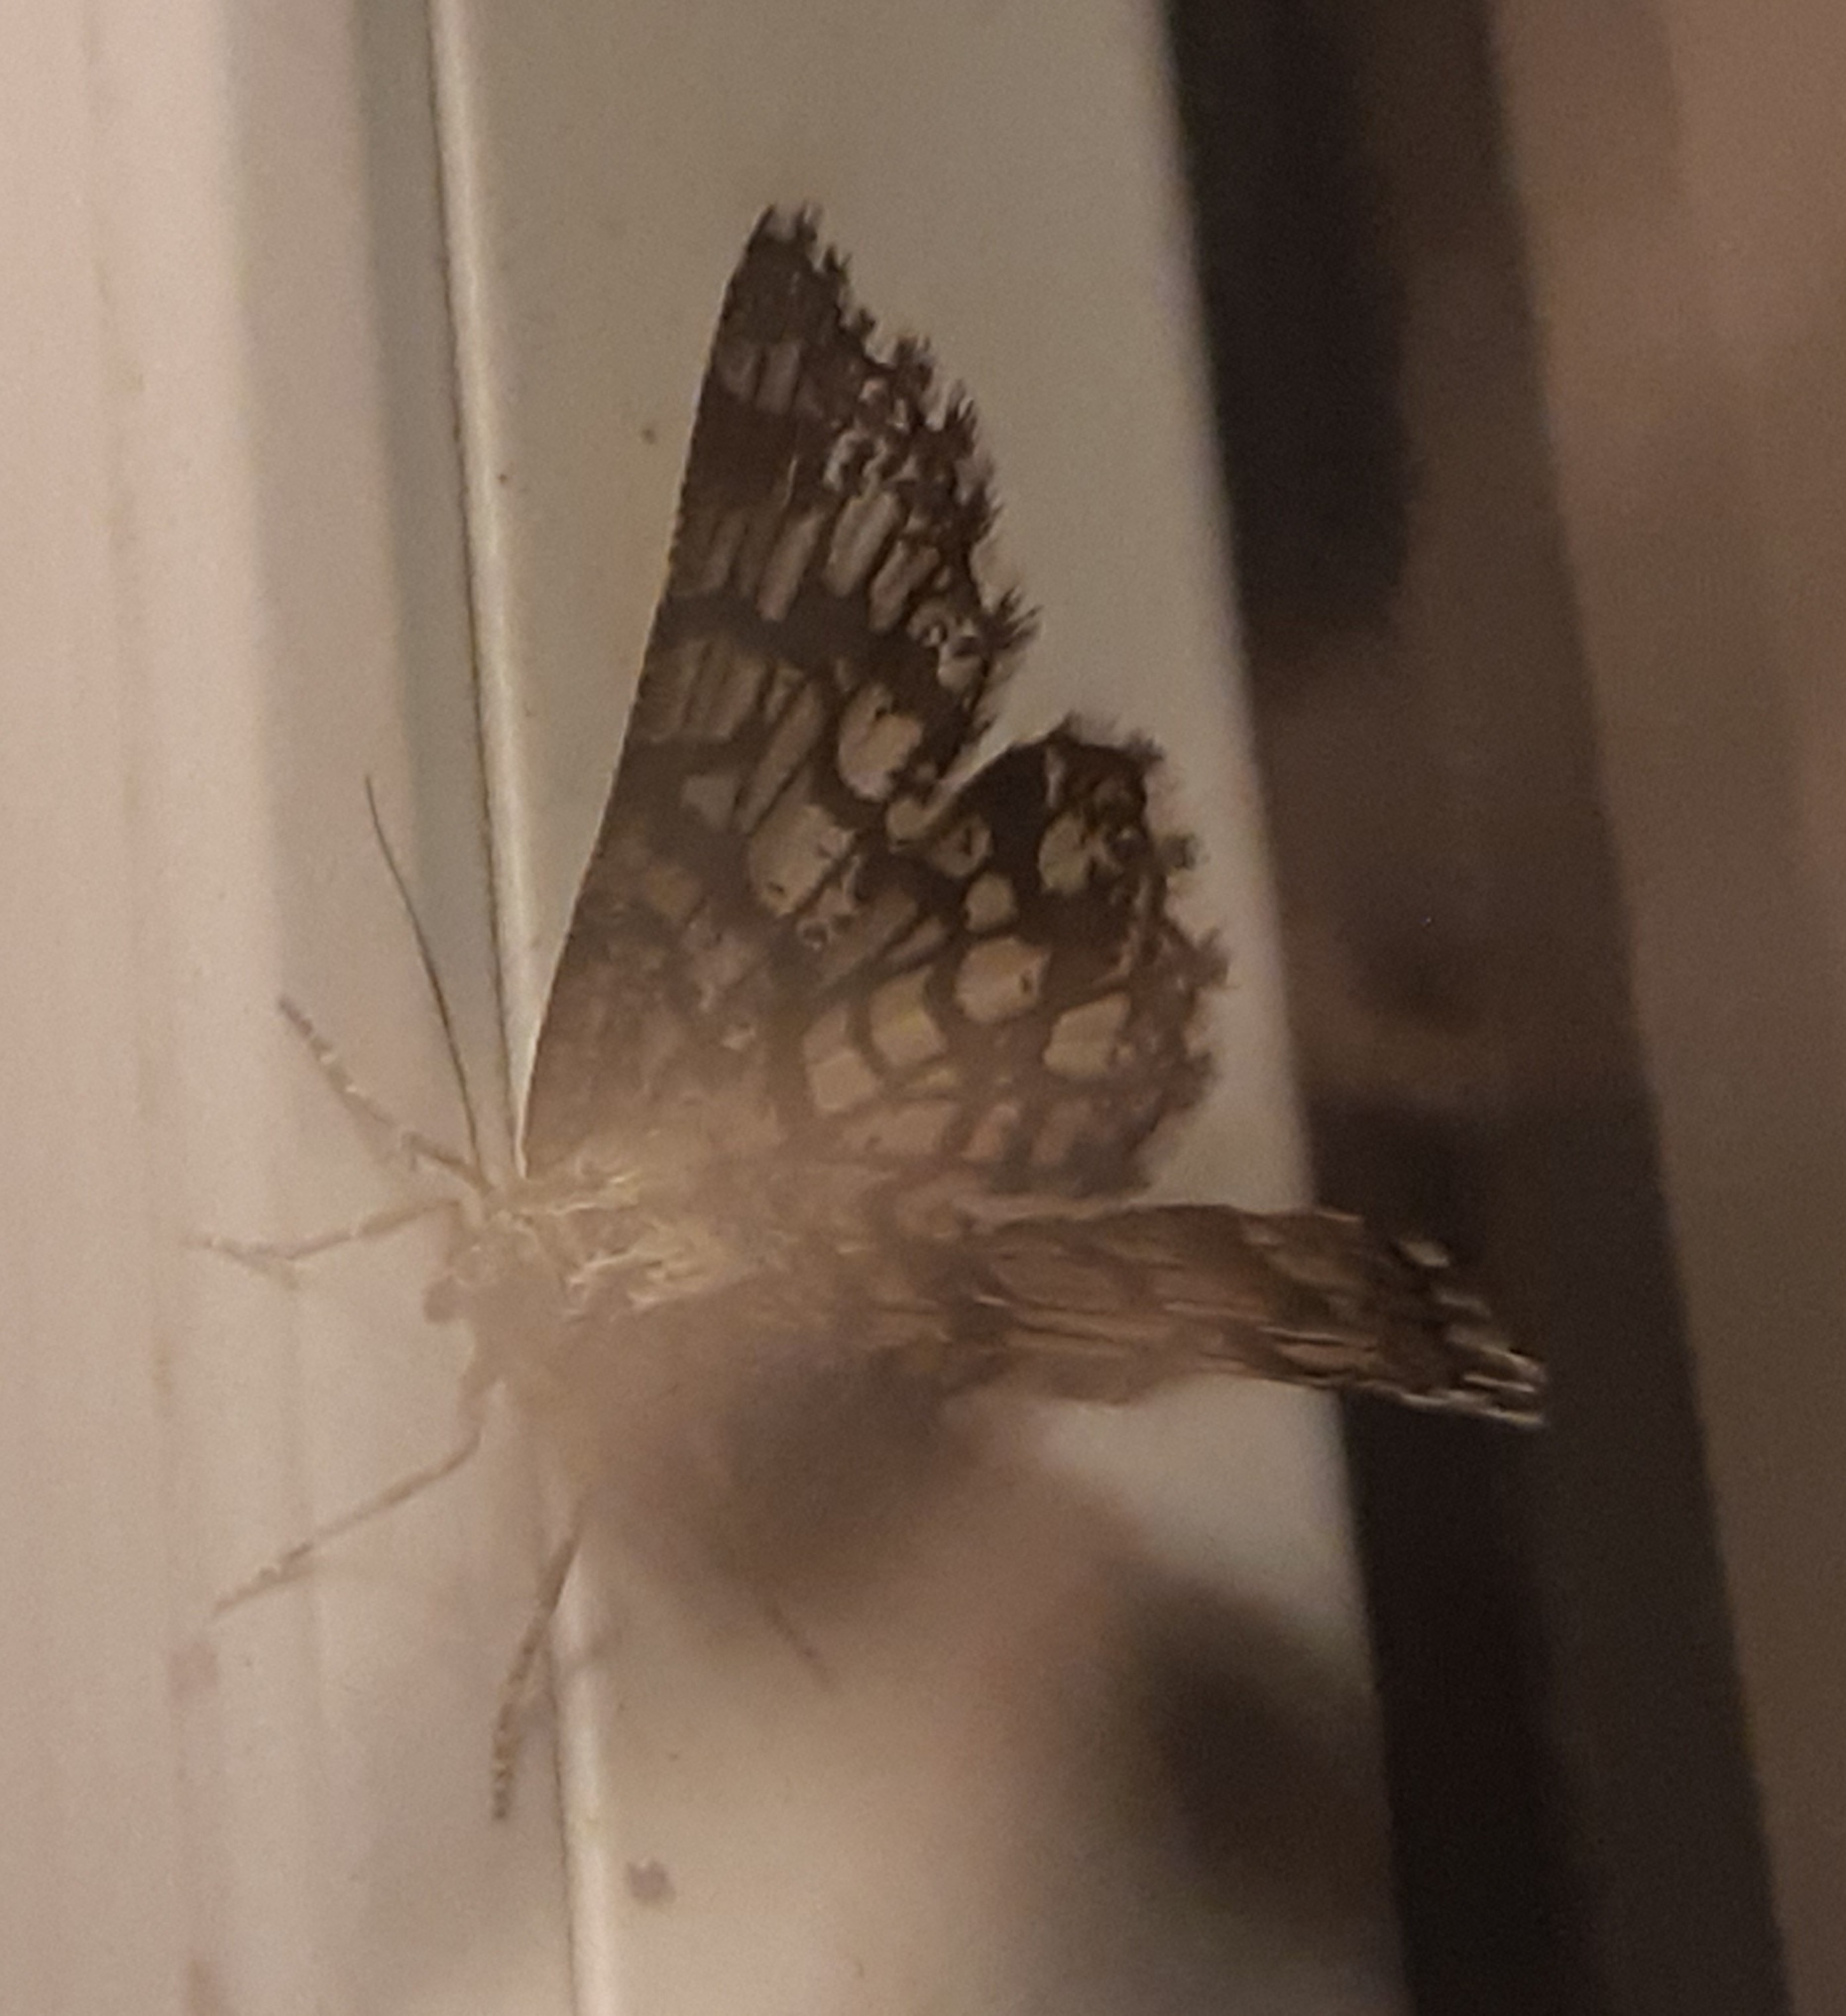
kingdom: Animalia
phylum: Arthropoda
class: Insecta
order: Lepidoptera
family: Geometridae
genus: Chiasmia
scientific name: Chiasmia clathrata
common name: Latticed heath
